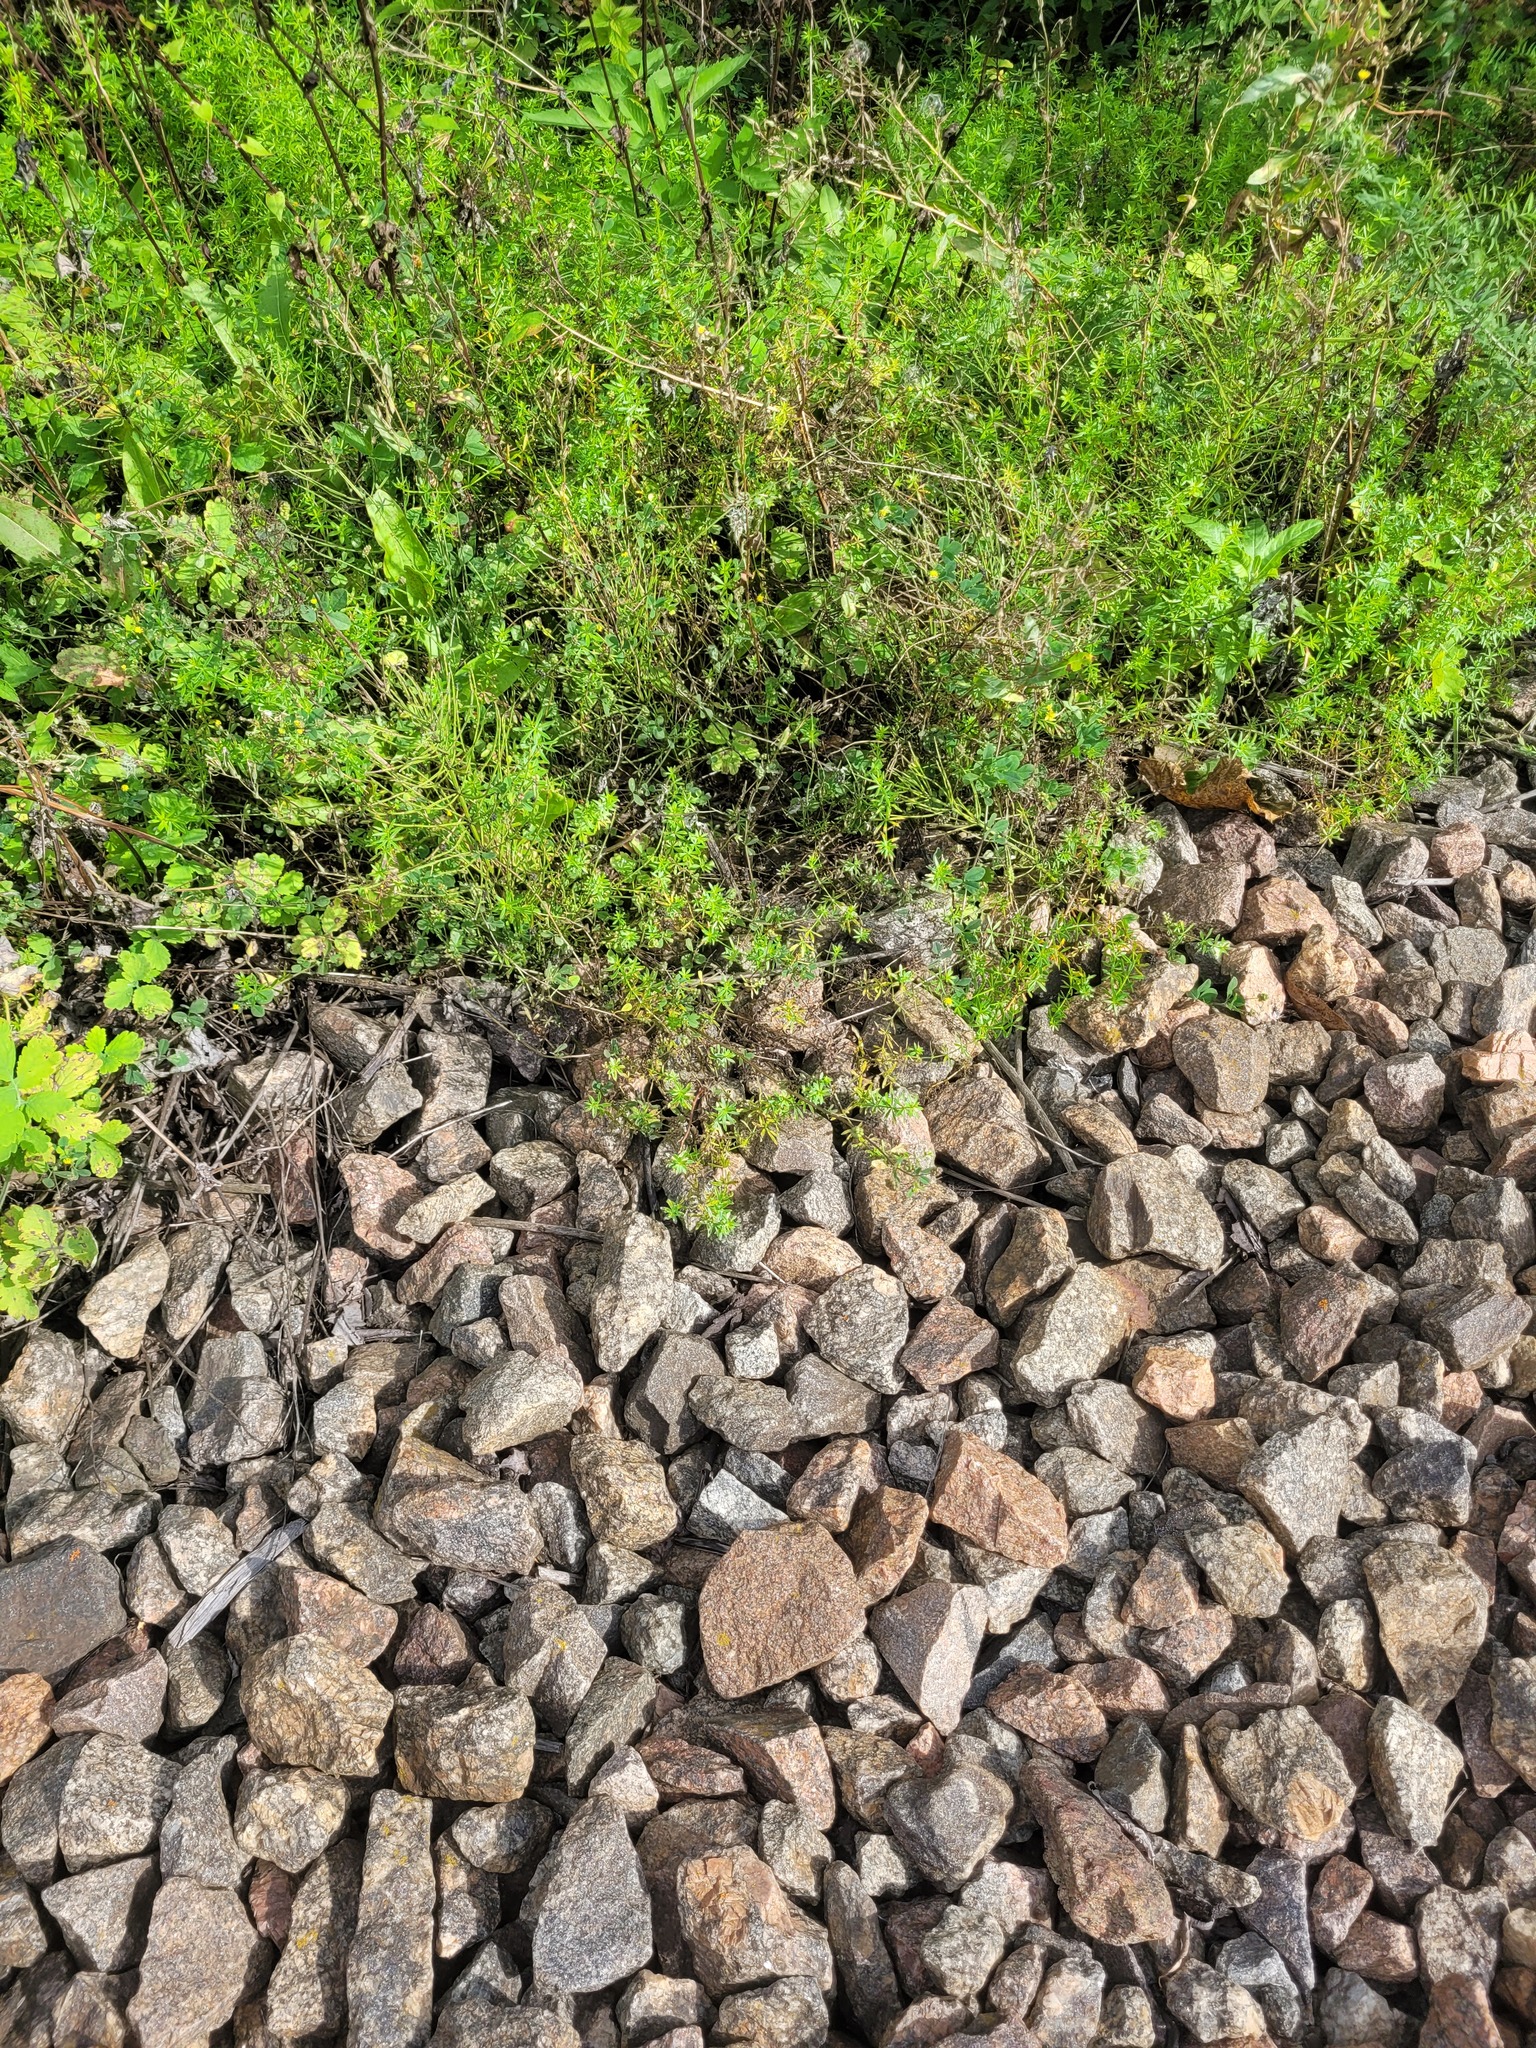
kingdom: Plantae
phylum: Tracheophyta
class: Magnoliopsida
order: Gentianales
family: Rubiaceae
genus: Galium
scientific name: Galium mollugo
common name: Hedge bedstraw
